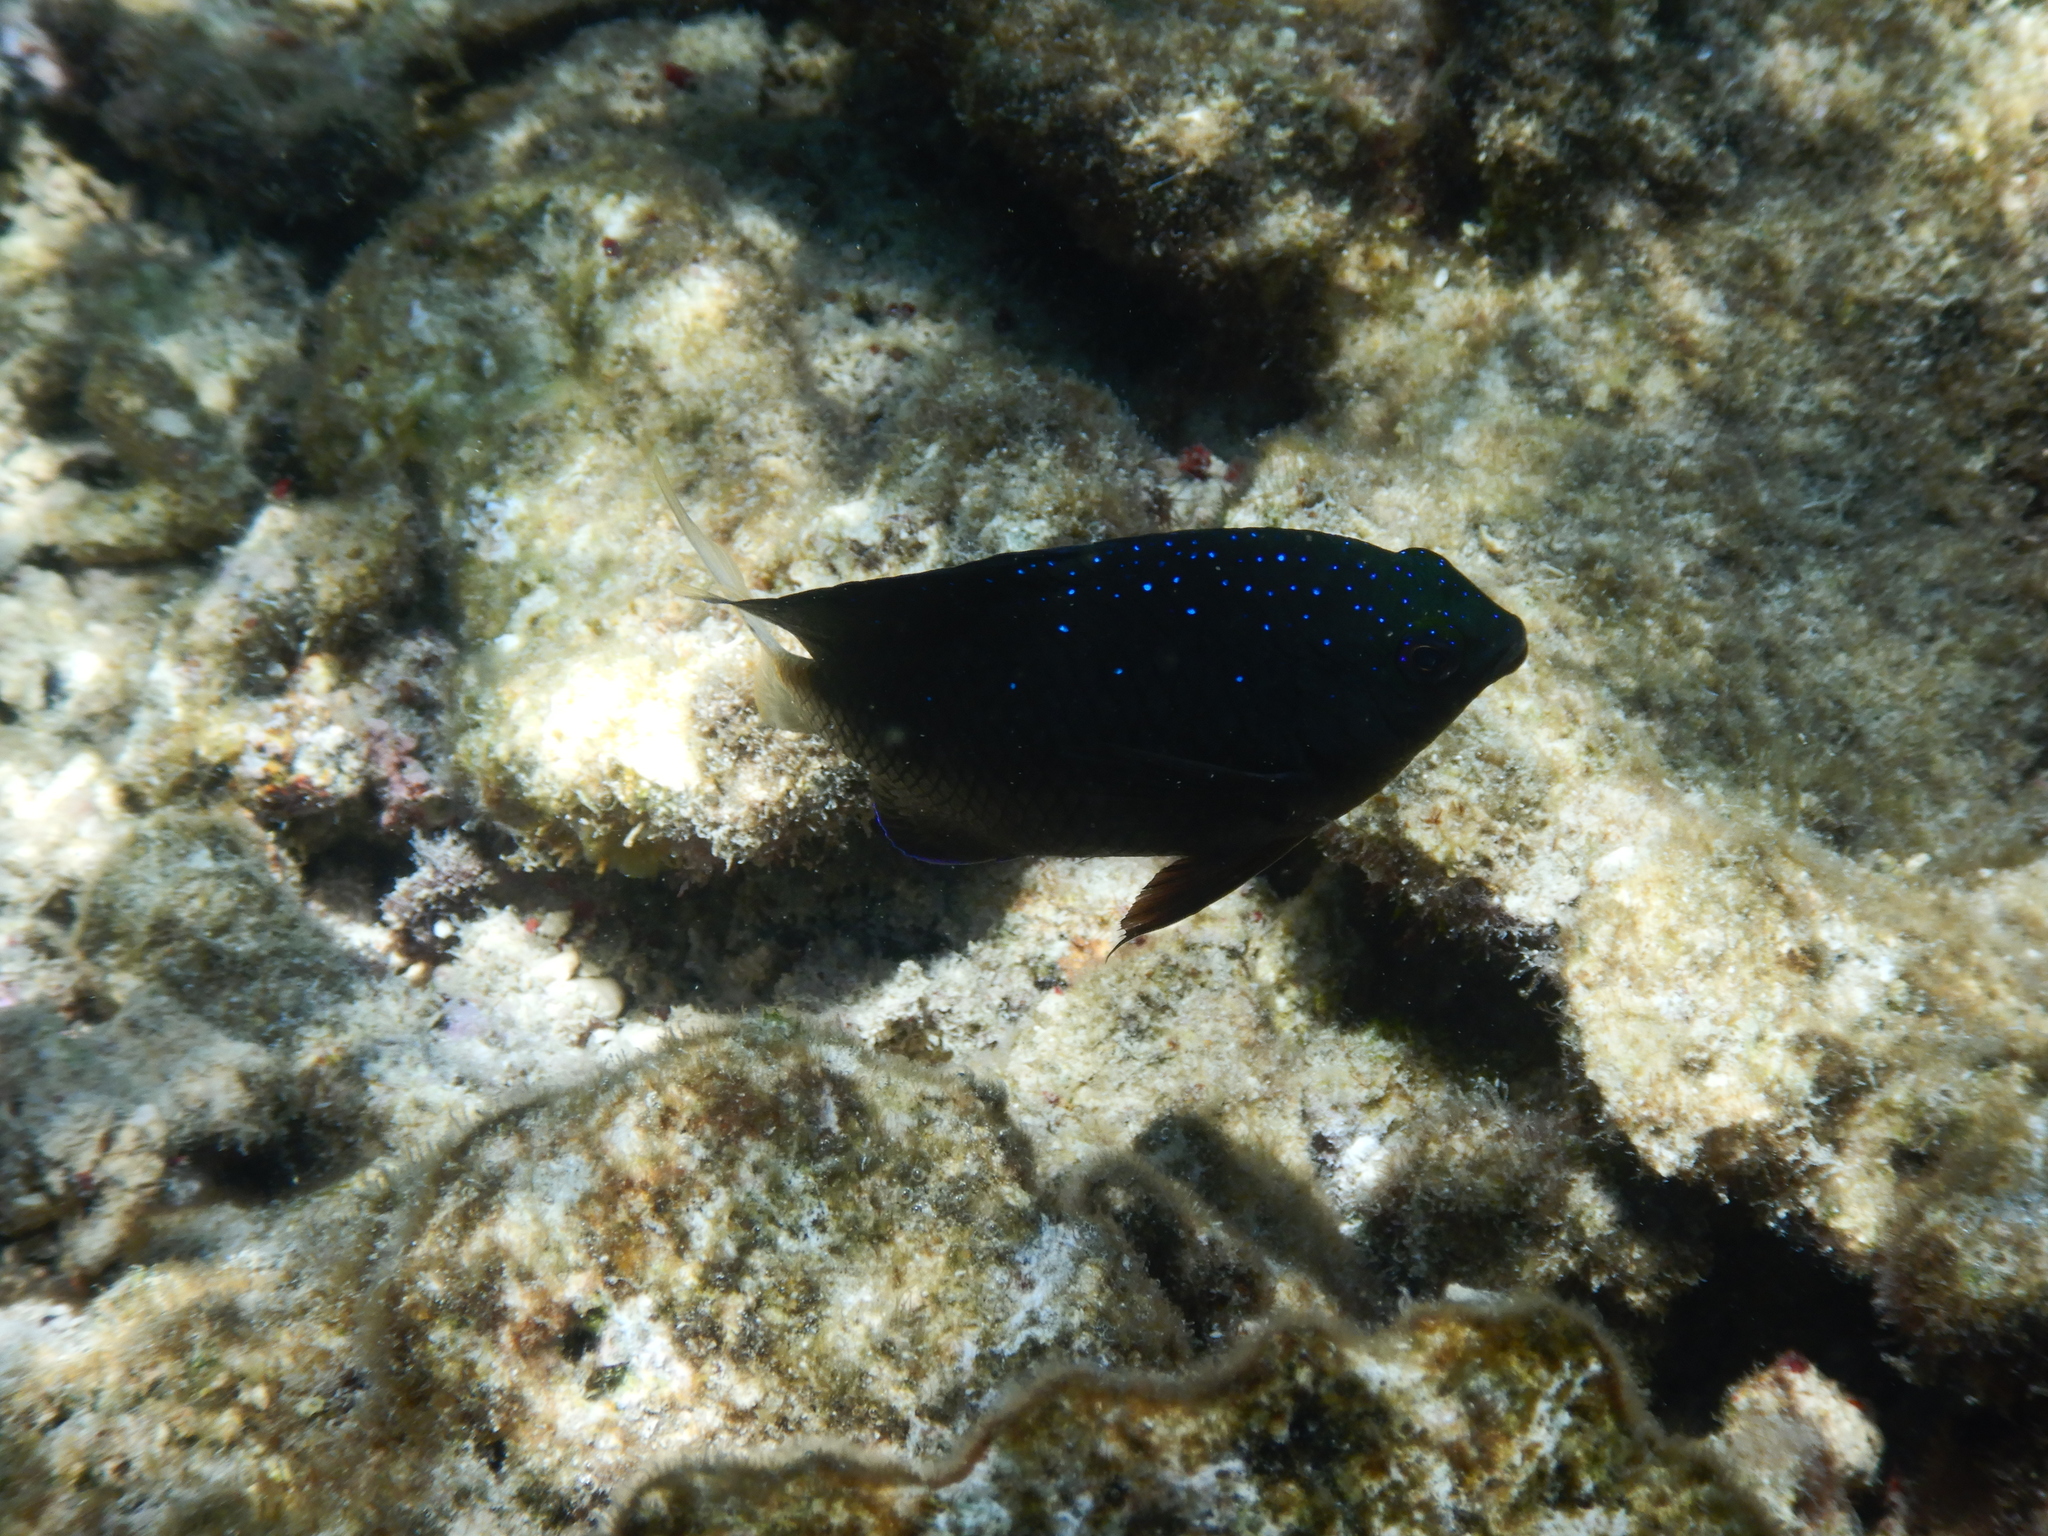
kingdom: Animalia
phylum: Chordata
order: Perciformes
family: Pomacentridae
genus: Plectroglyphidodon
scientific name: Plectroglyphidodon lacrymatus
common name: Jewel damsel
